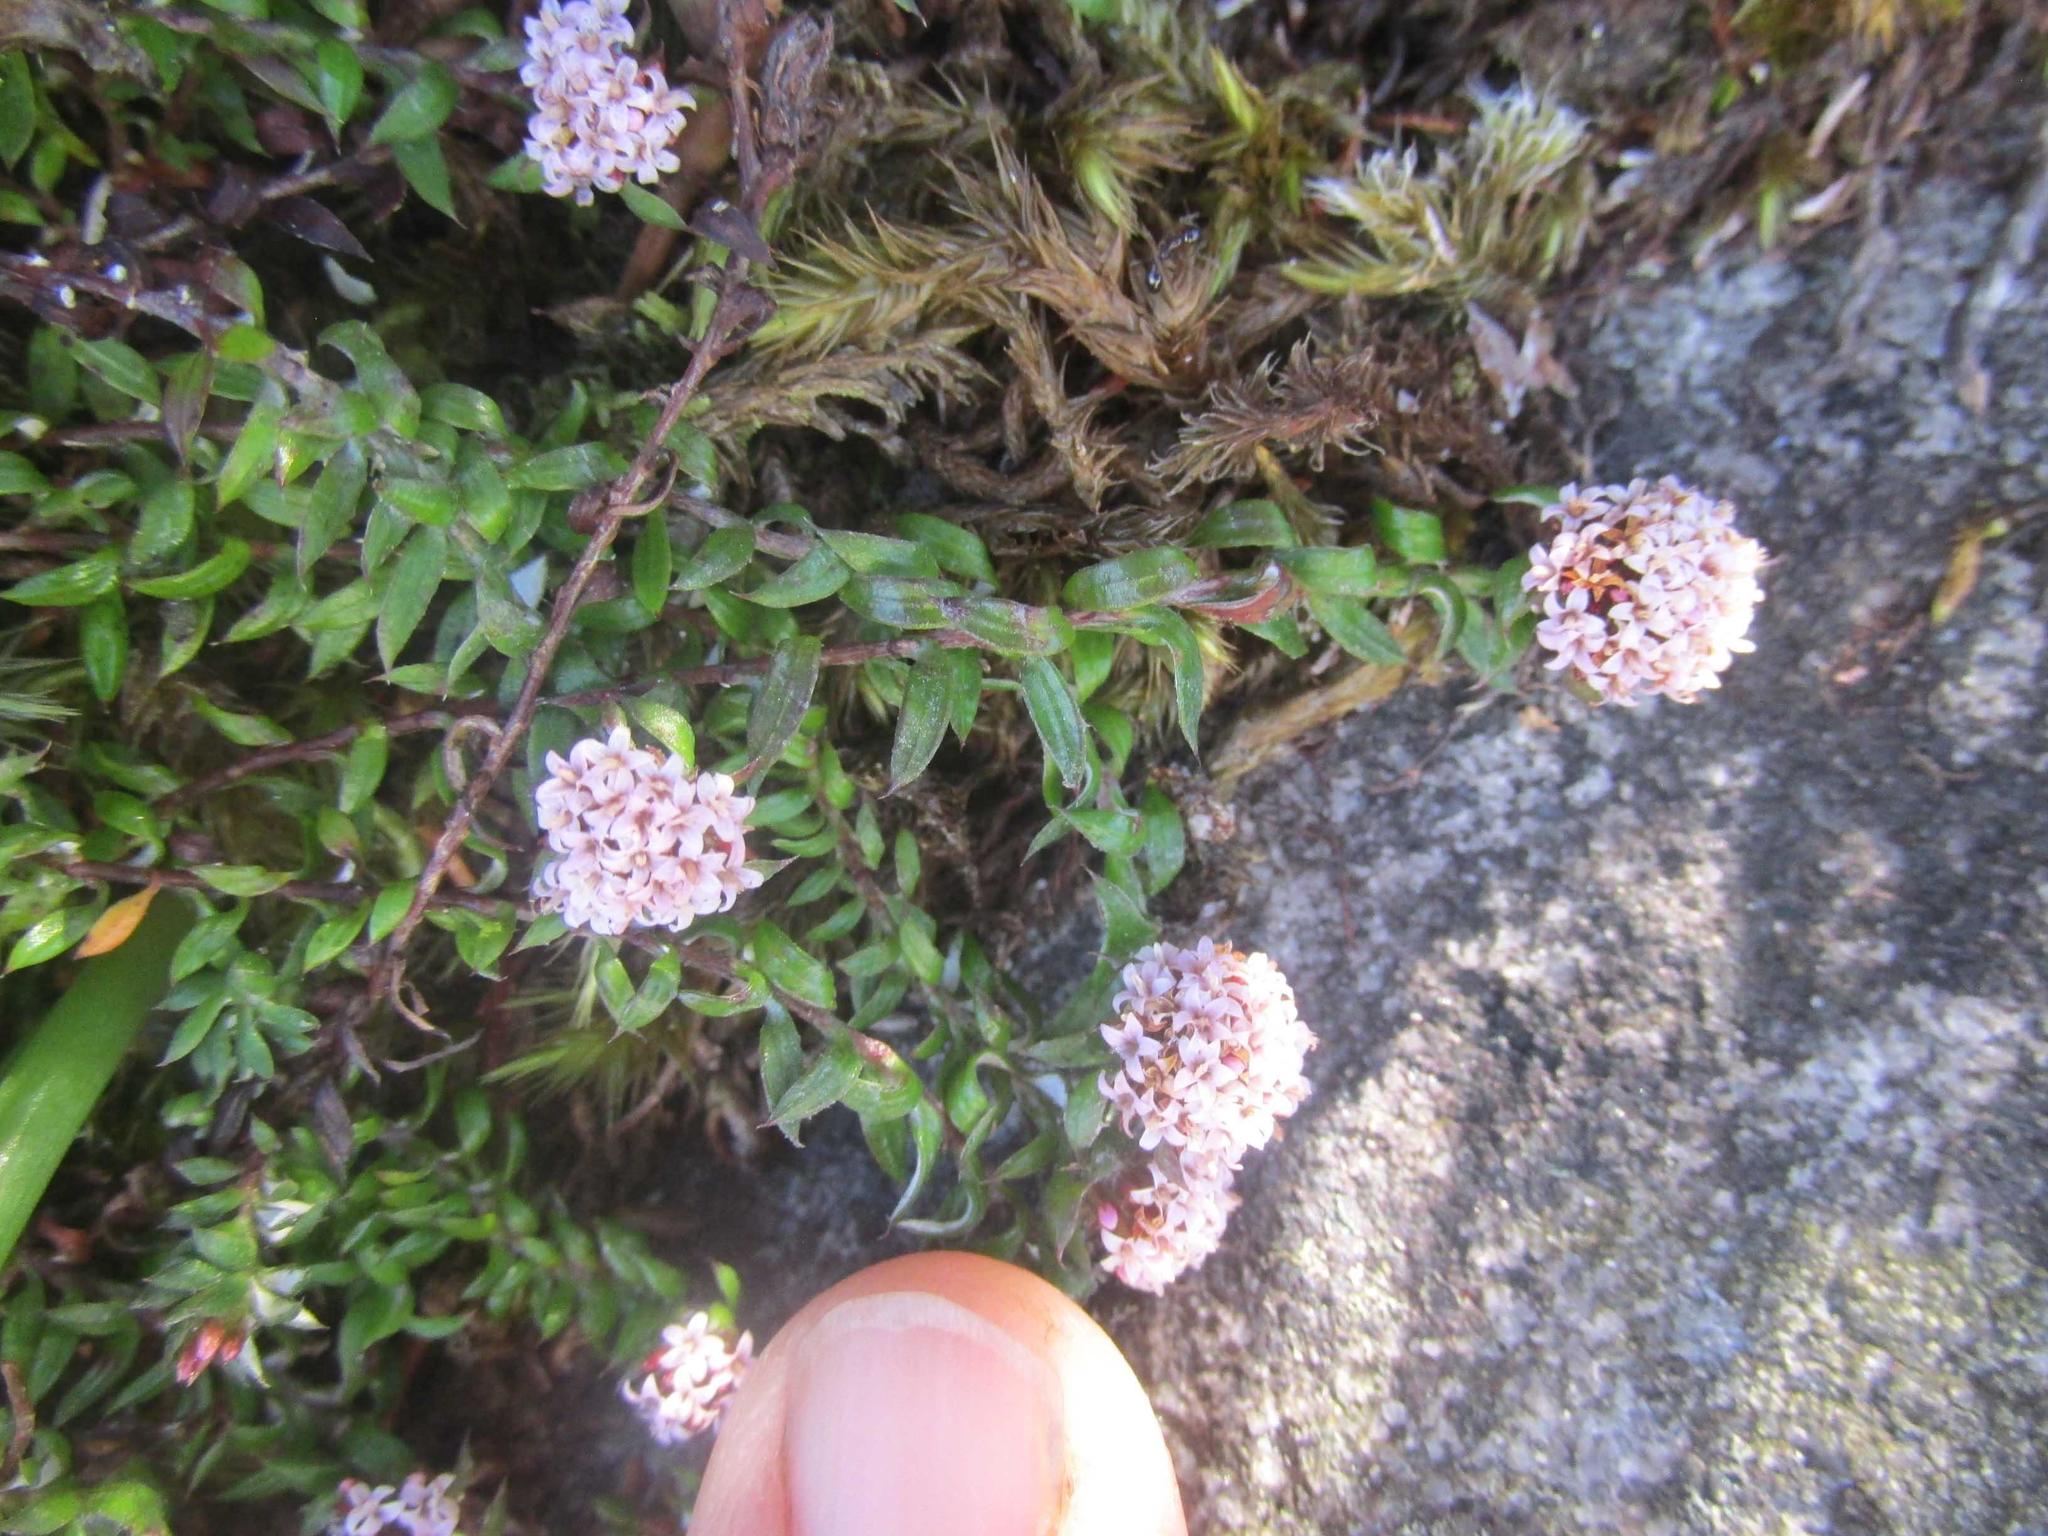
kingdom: Plantae
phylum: Tracheophyta
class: Magnoliopsida
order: Asterales
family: Asteraceae
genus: Stoebe
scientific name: Stoebe prostrata
